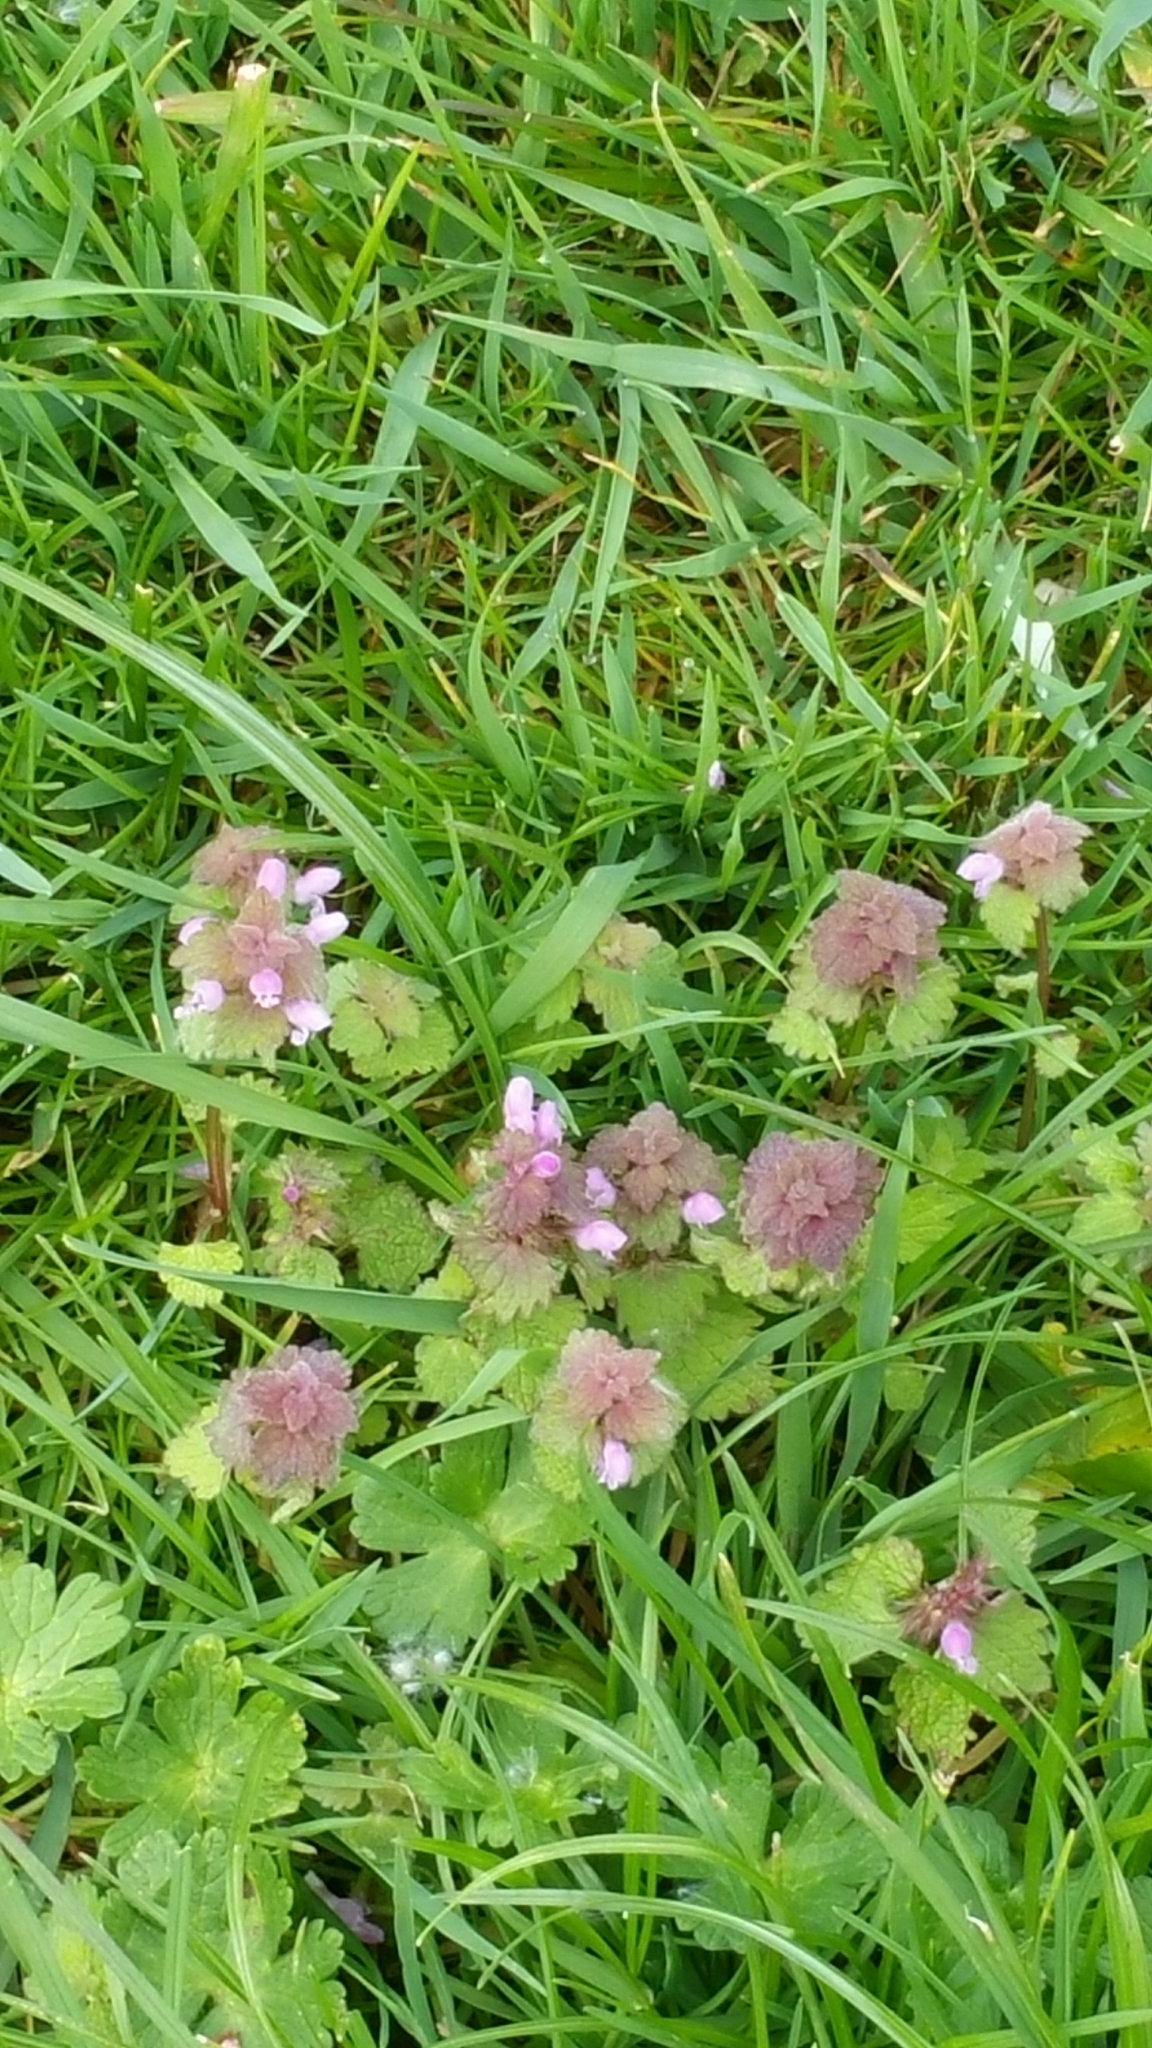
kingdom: Plantae
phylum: Tracheophyta
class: Magnoliopsida
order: Lamiales
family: Lamiaceae
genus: Lamium
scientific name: Lamium purpureum
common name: Red dead-nettle
